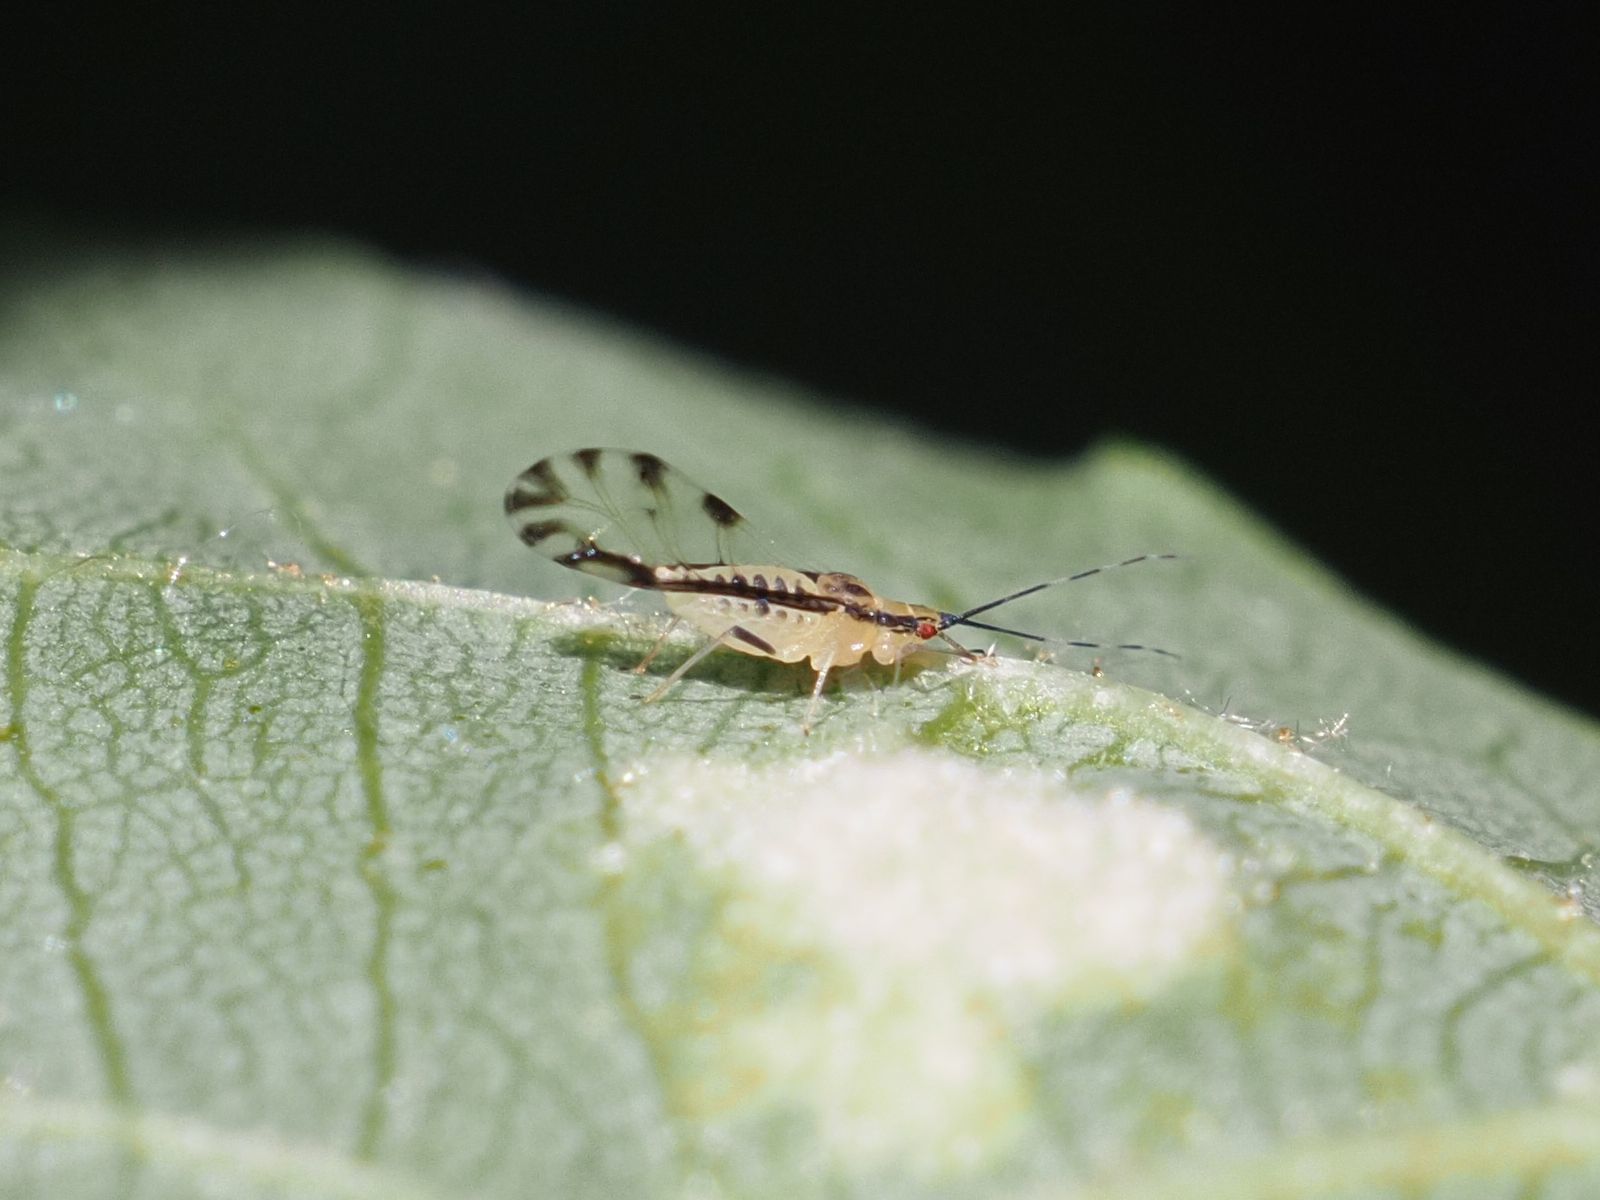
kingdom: Animalia
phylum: Arthropoda
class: Insecta
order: Hemiptera
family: Aphididae
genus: Eucallipterus
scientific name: Eucallipterus tiliae
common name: Aphid
